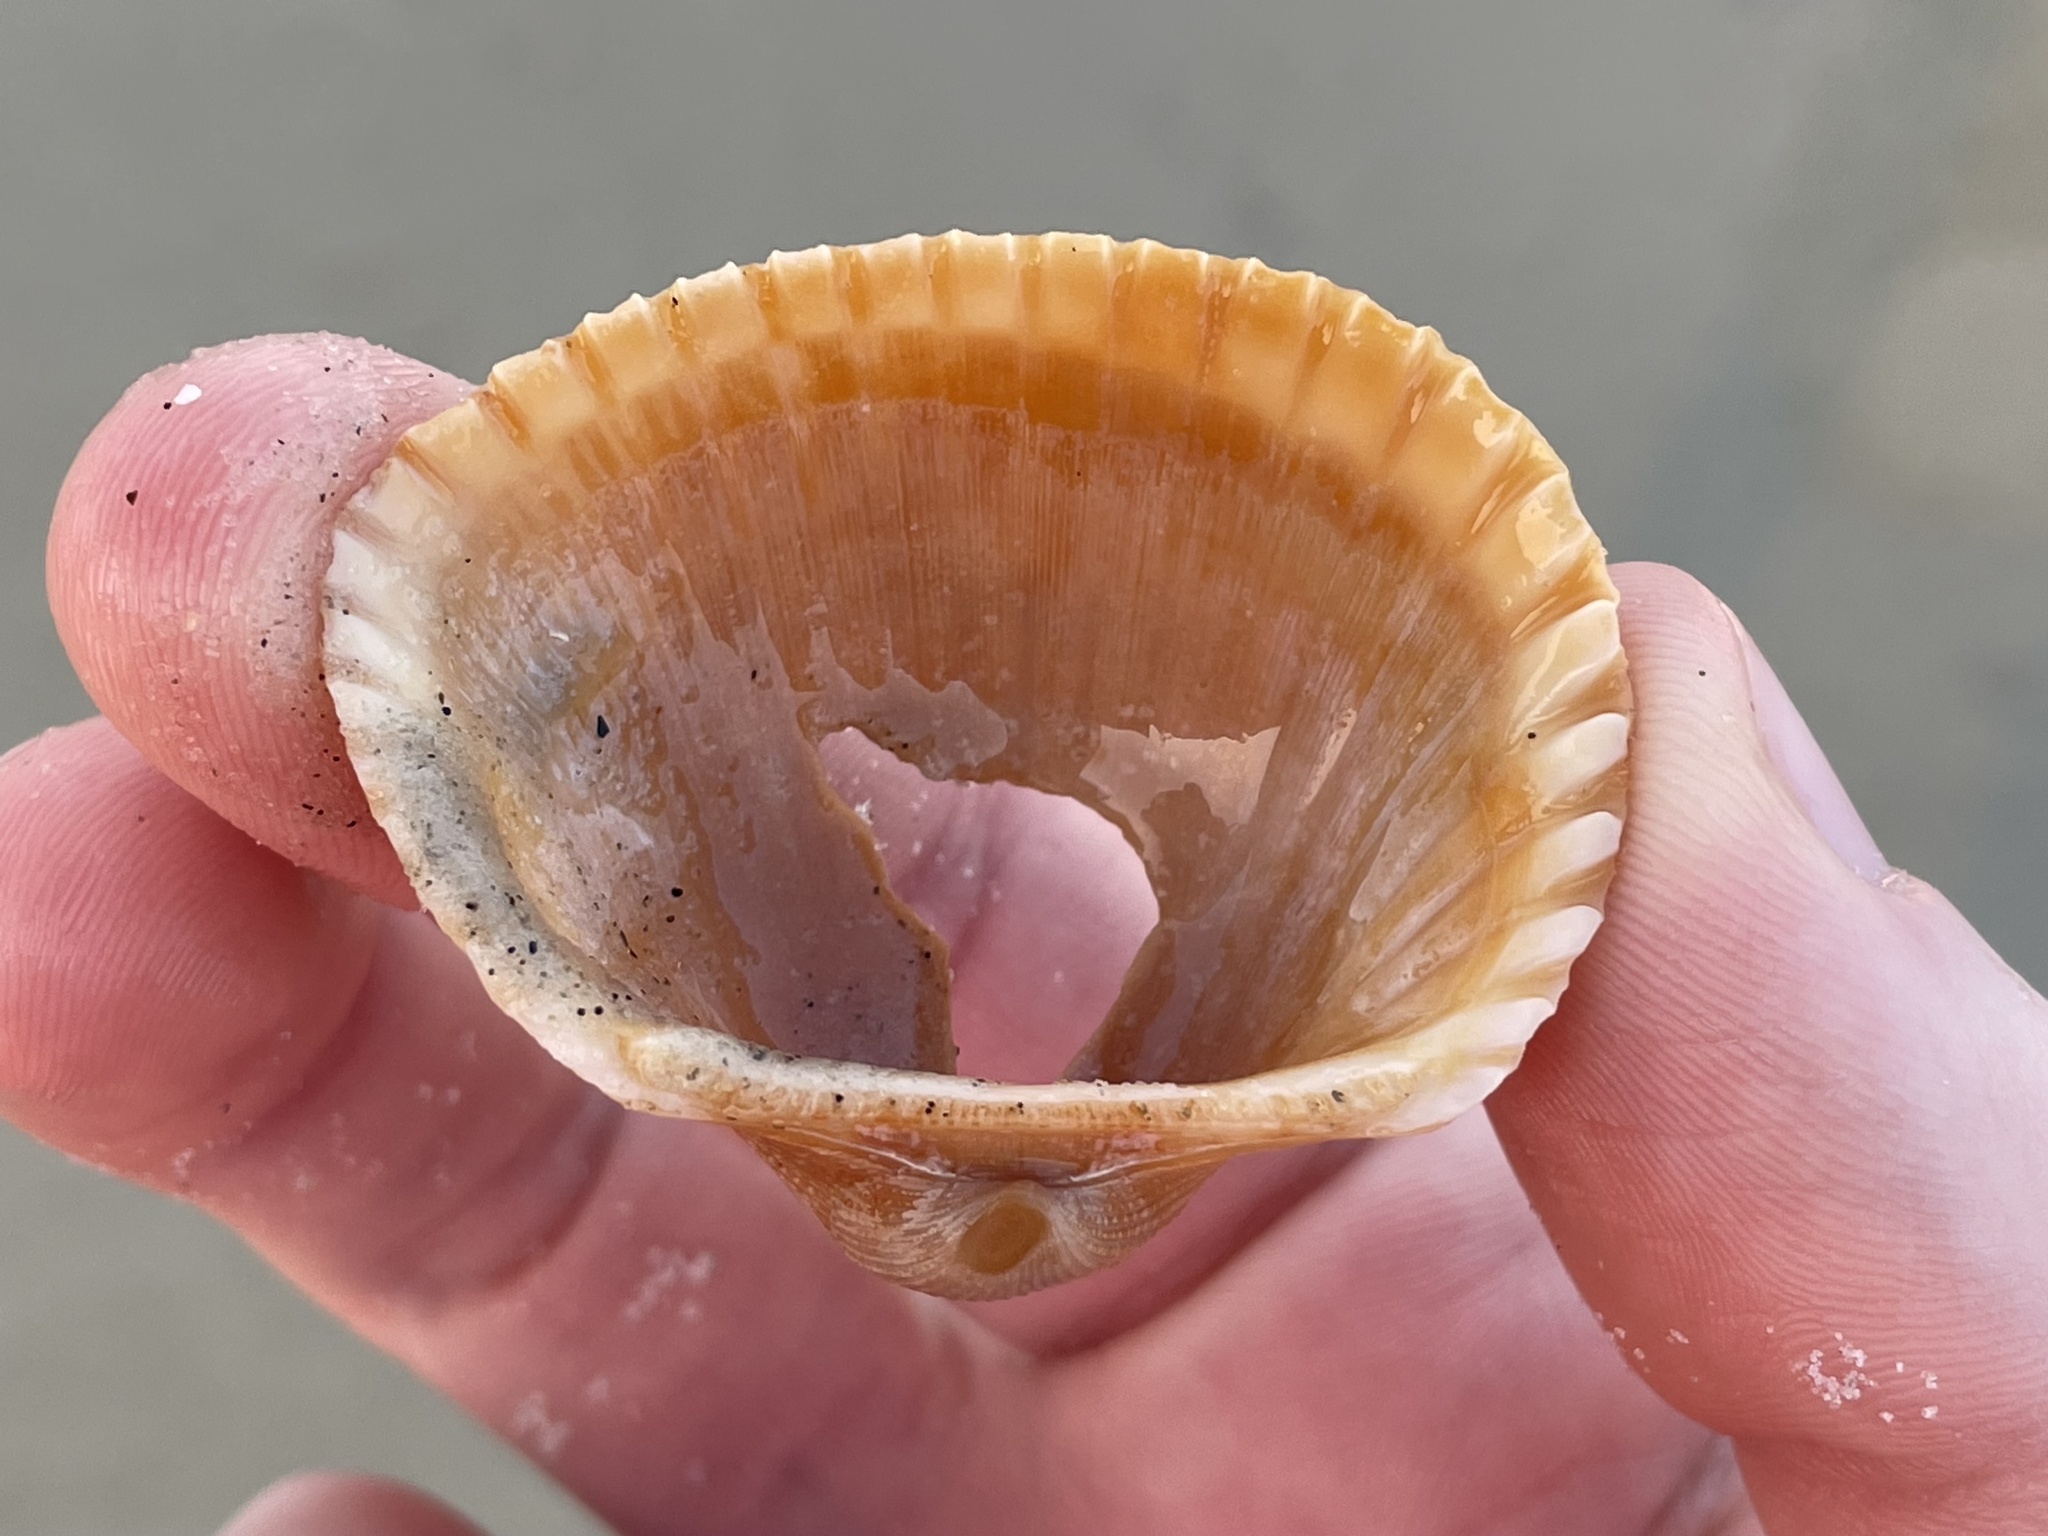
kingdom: Animalia
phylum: Mollusca
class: Bivalvia
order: Arcida
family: Arcidae
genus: Anadara
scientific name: Anadara brasiliana
